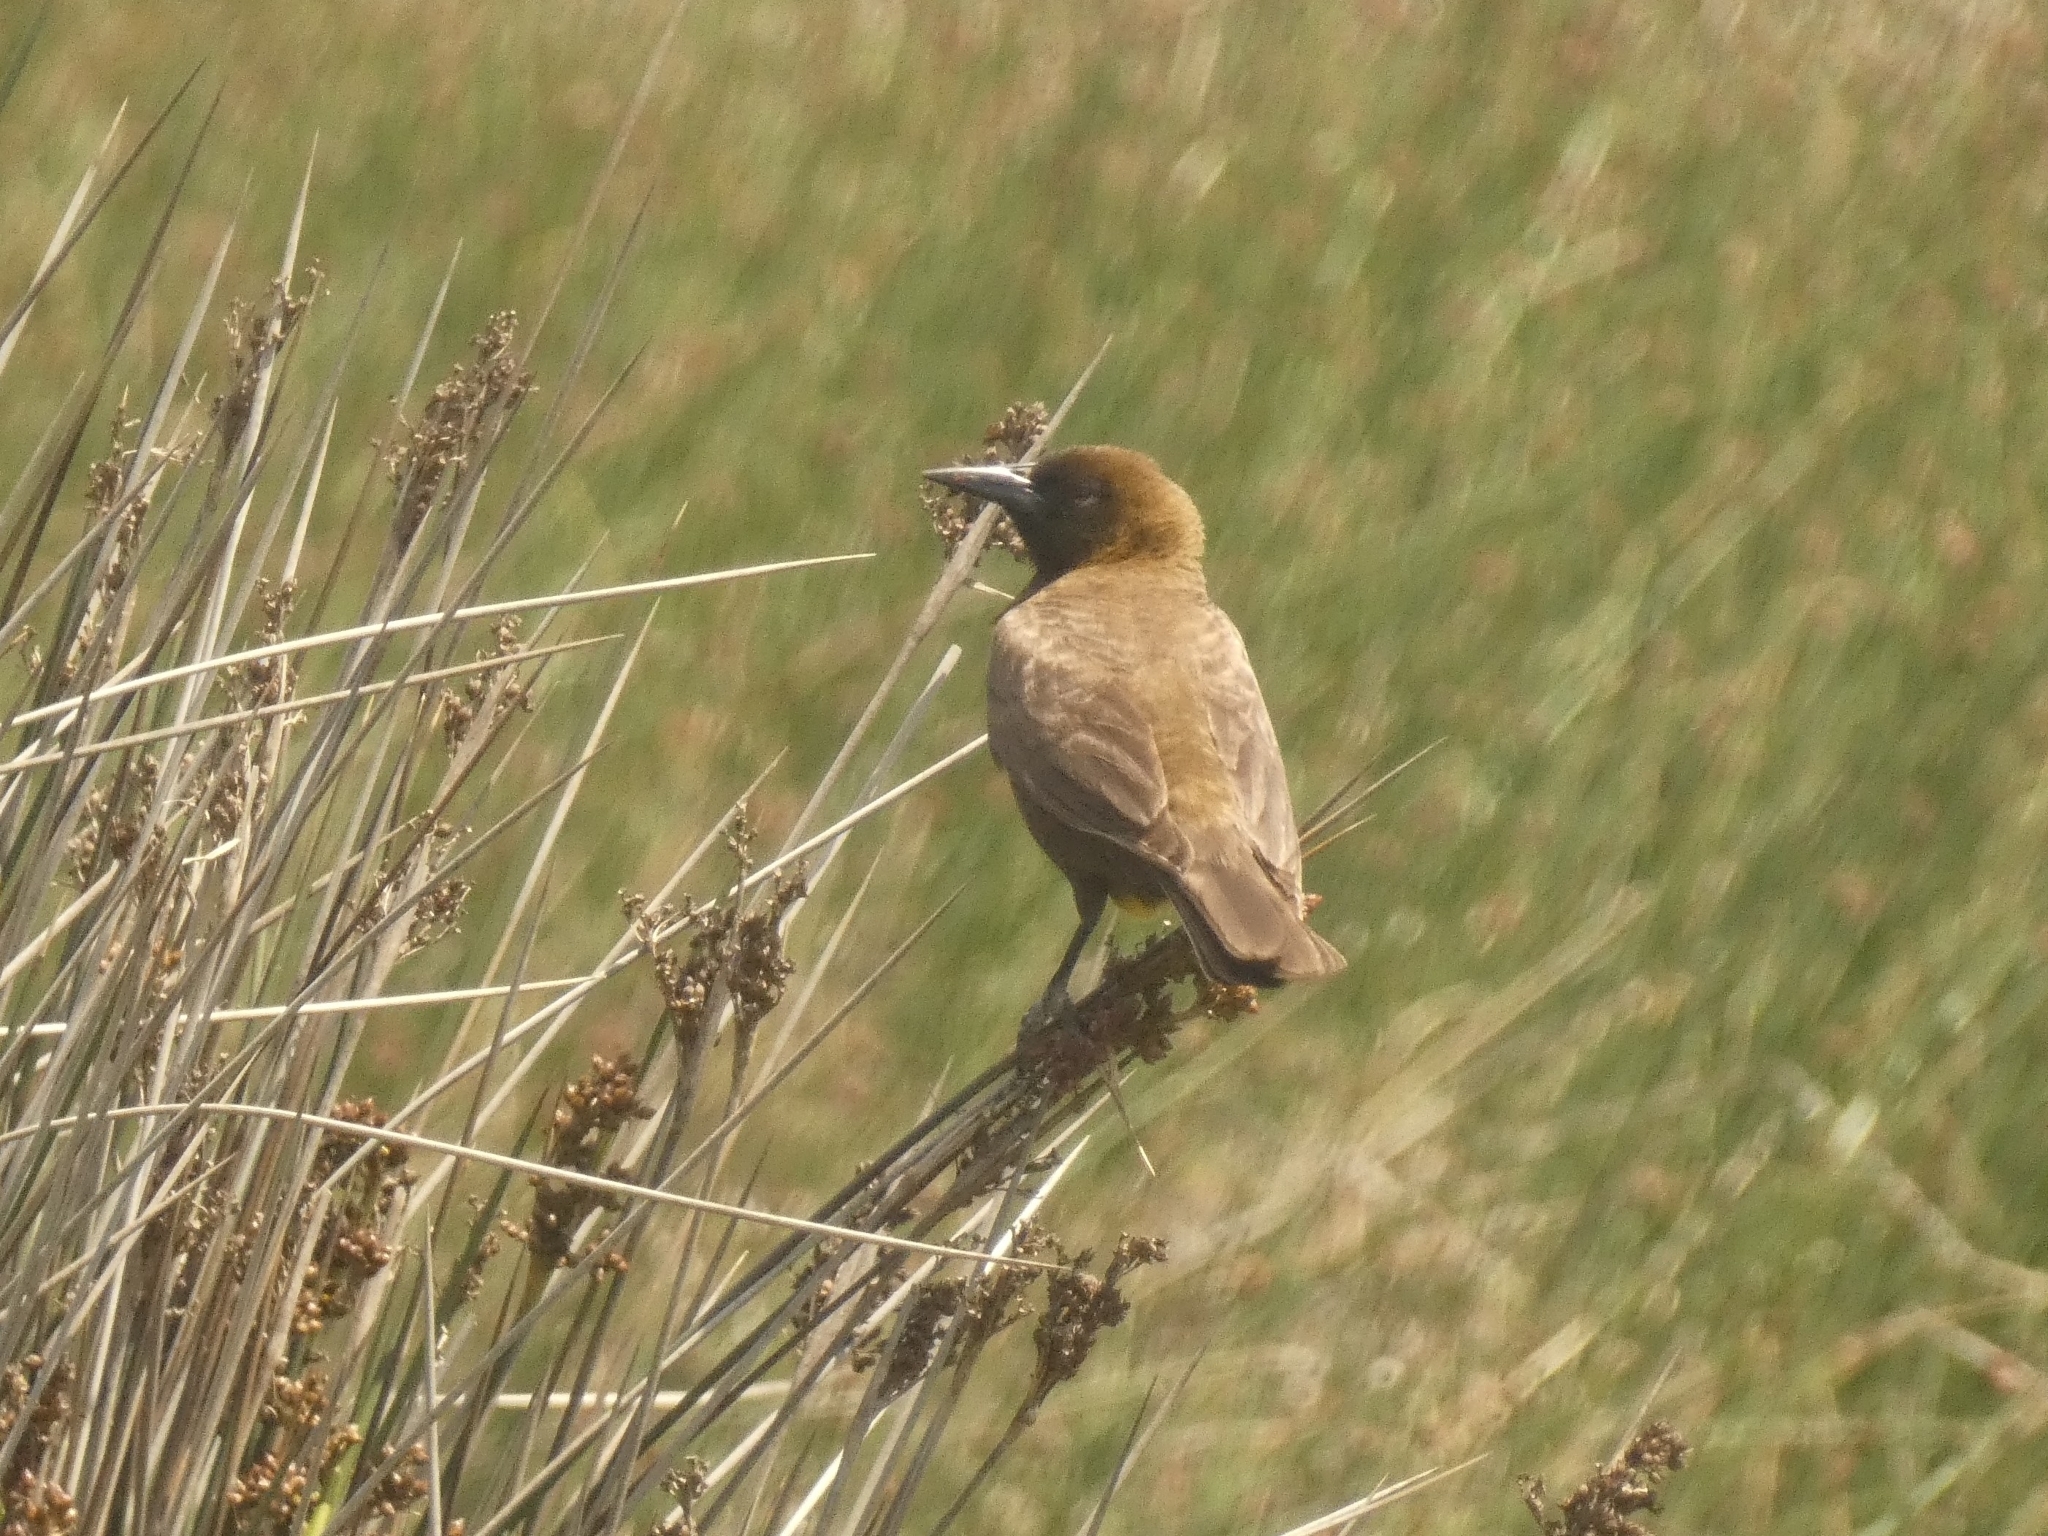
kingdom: Animalia
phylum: Chordata
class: Aves
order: Passeriformes
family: Icteridae
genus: Pseudoleistes
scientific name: Pseudoleistes virescens
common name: Brown-and-yellow marshbird
